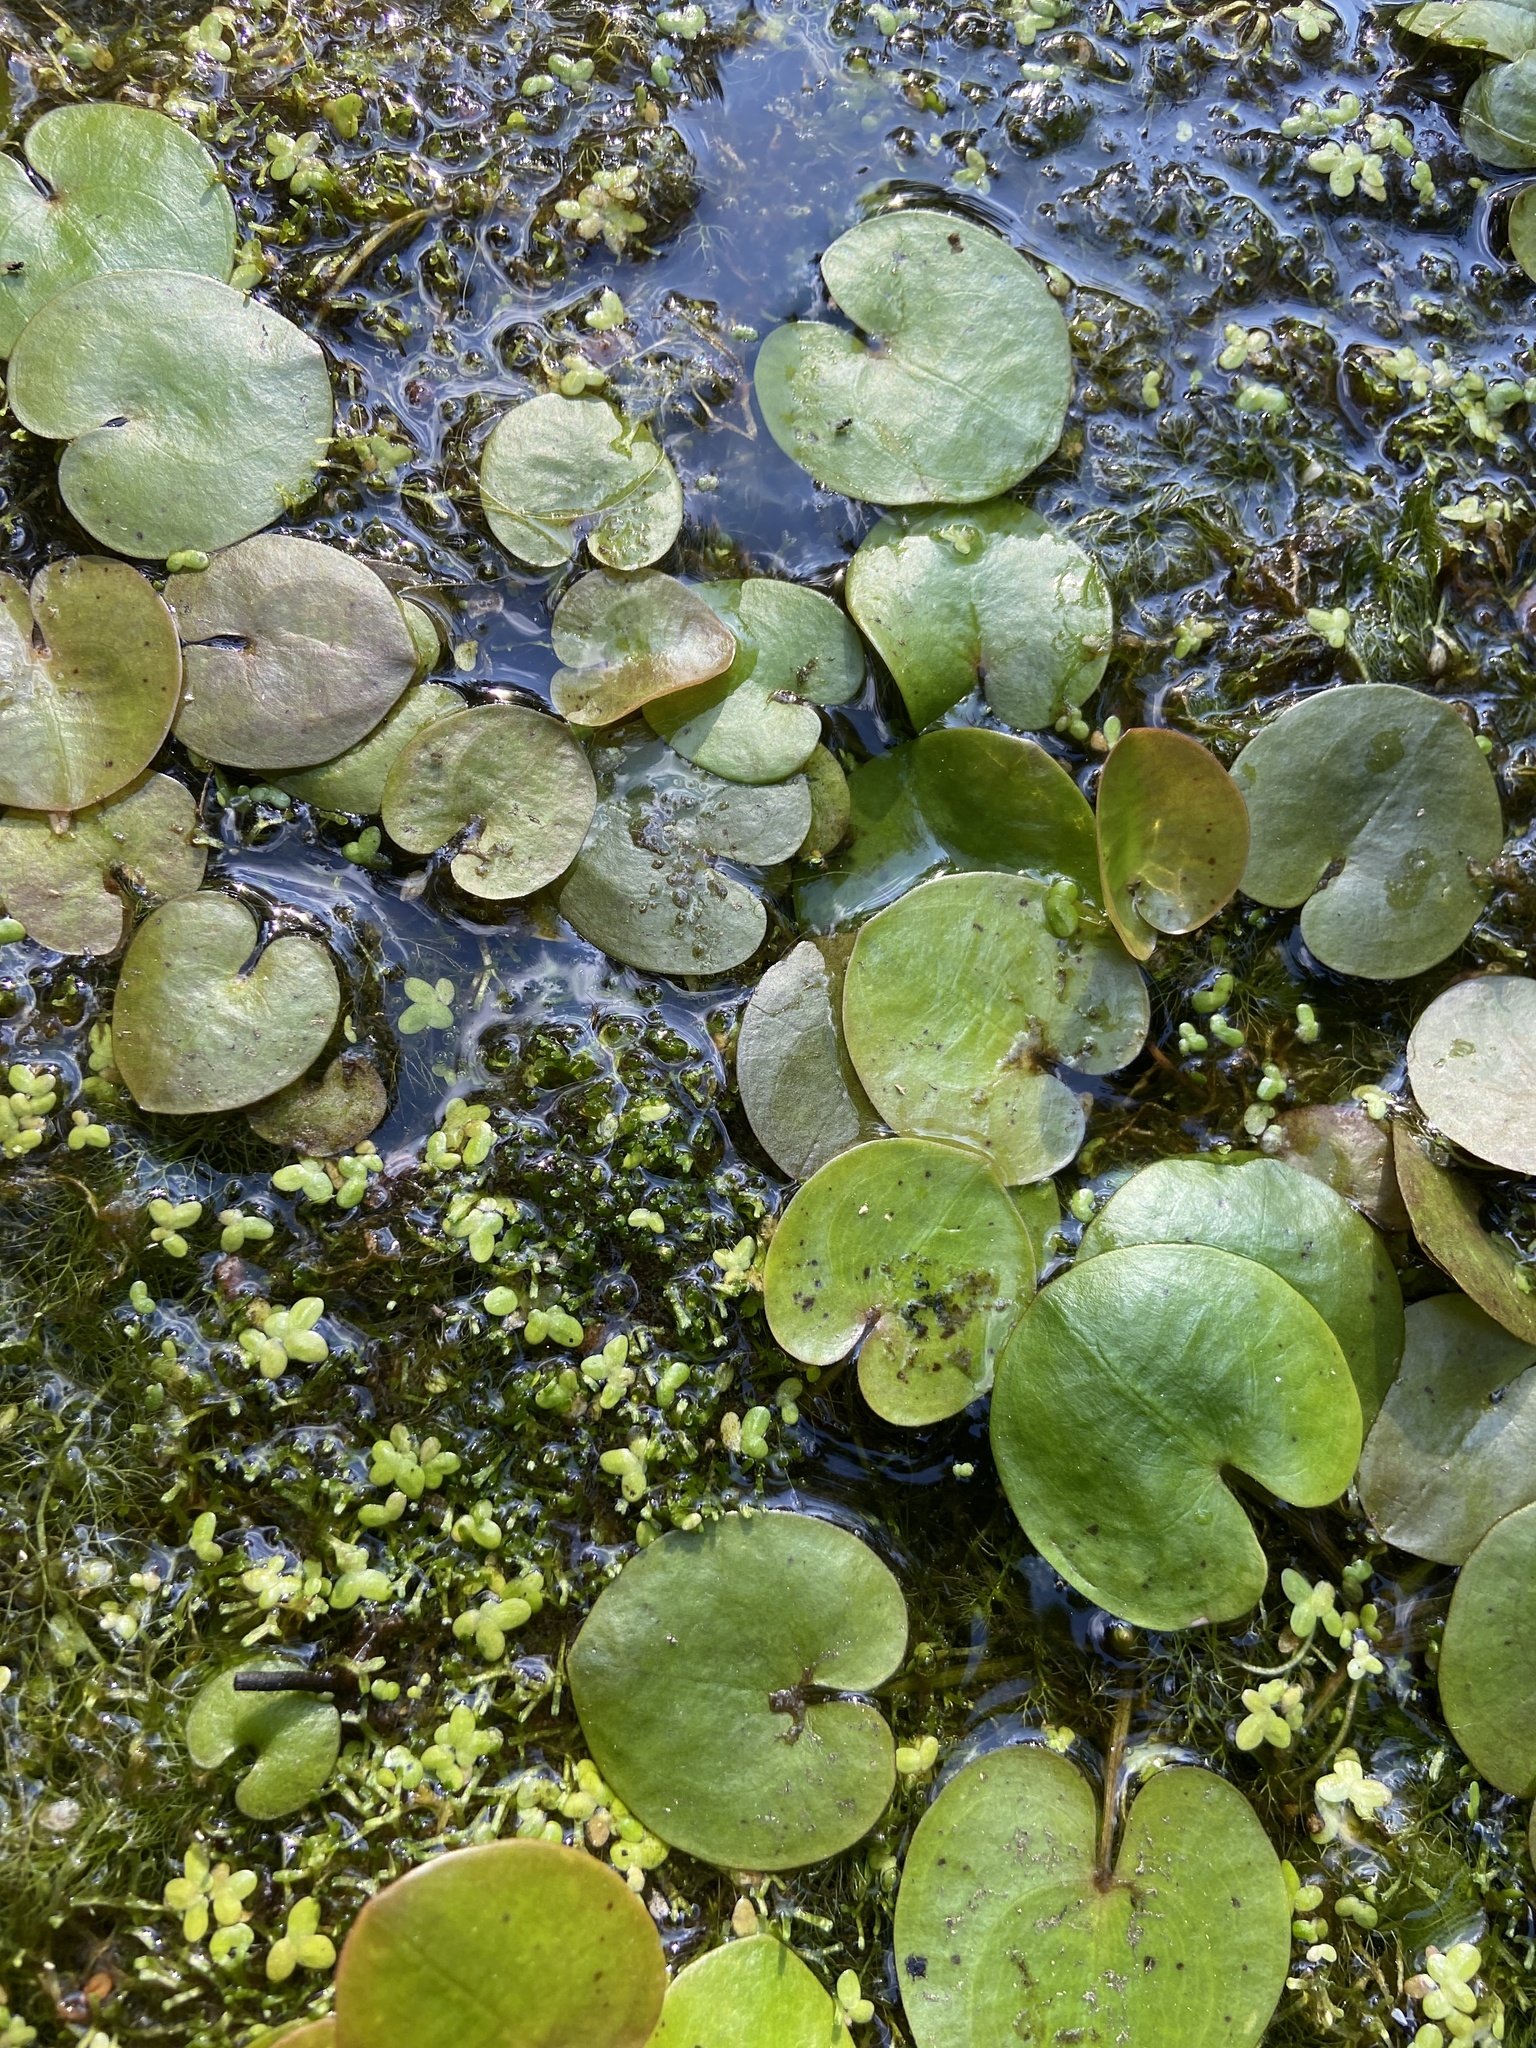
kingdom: Plantae
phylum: Tracheophyta
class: Liliopsida
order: Alismatales
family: Hydrocharitaceae
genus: Hydrocharis
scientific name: Hydrocharis morsus-ranae
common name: Frogbit
